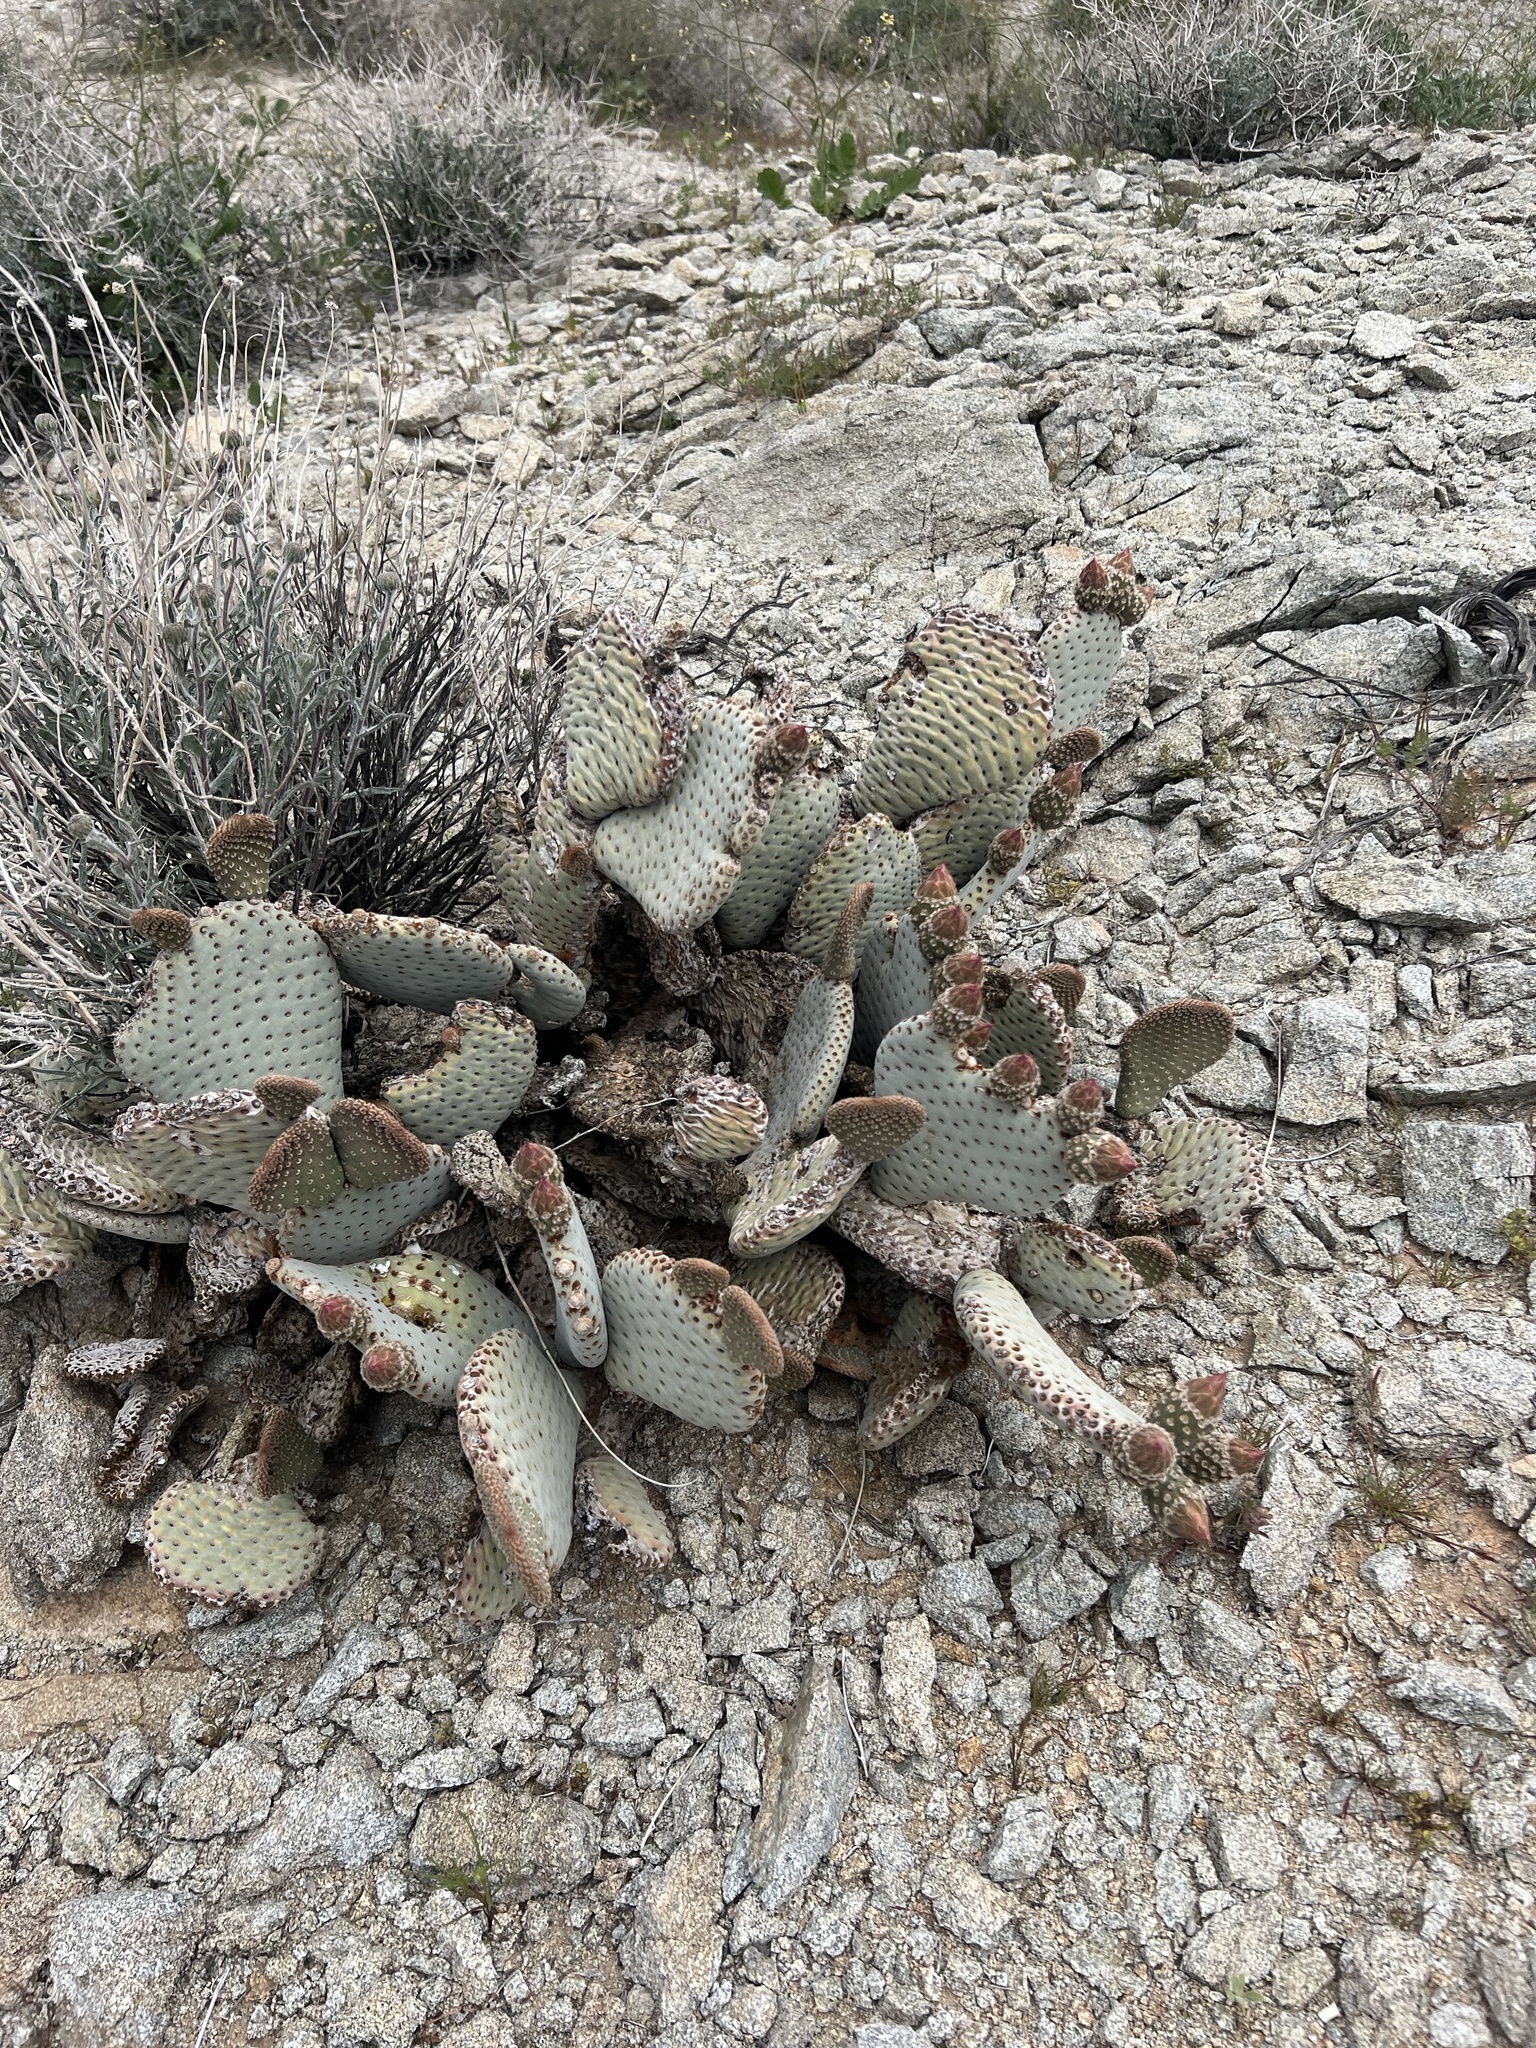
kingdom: Plantae
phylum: Tracheophyta
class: Magnoliopsida
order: Caryophyllales
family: Cactaceae
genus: Opuntia
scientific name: Opuntia basilaris
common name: Beavertail prickly-pear
